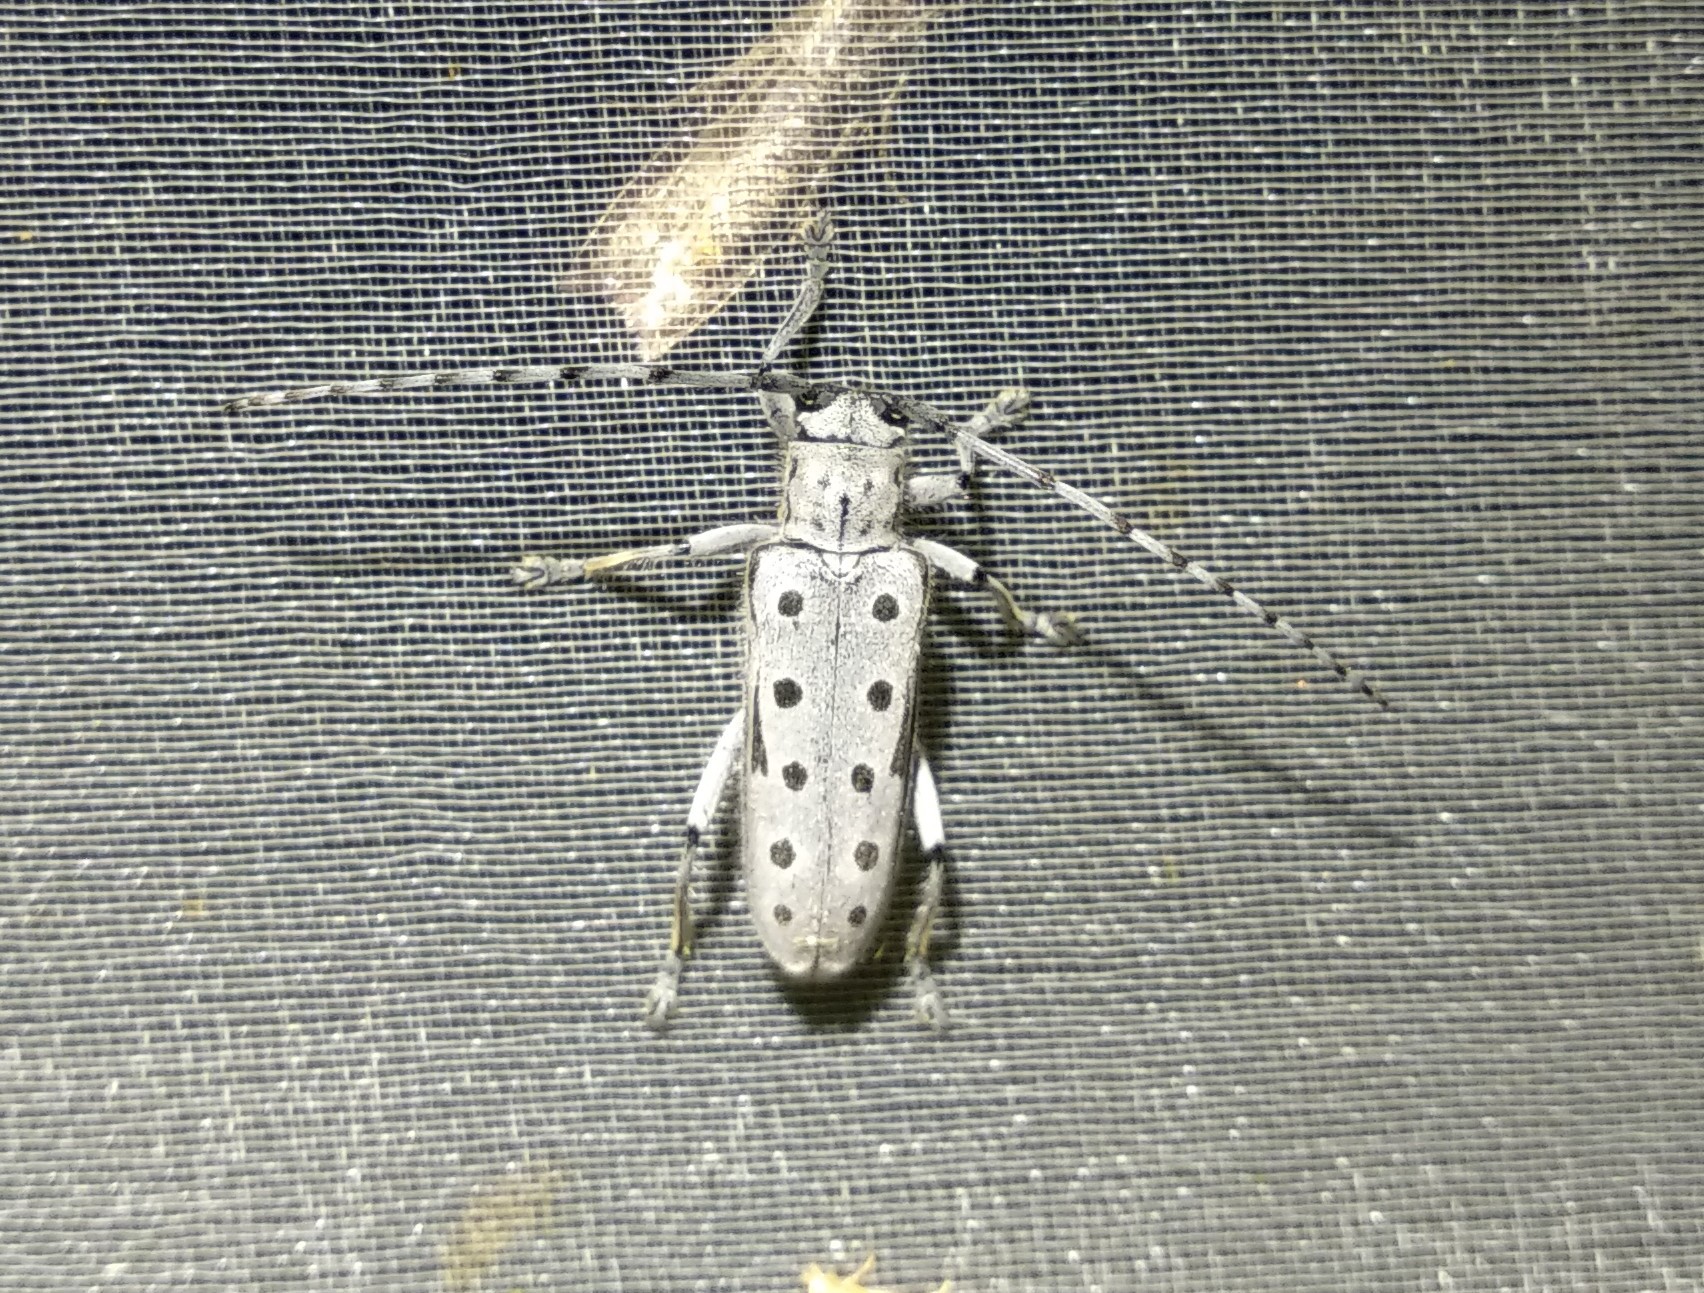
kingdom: Animalia
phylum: Arthropoda
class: Insecta
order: Coleoptera
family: Cerambycidae
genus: Saperda
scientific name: Saperda perforata
